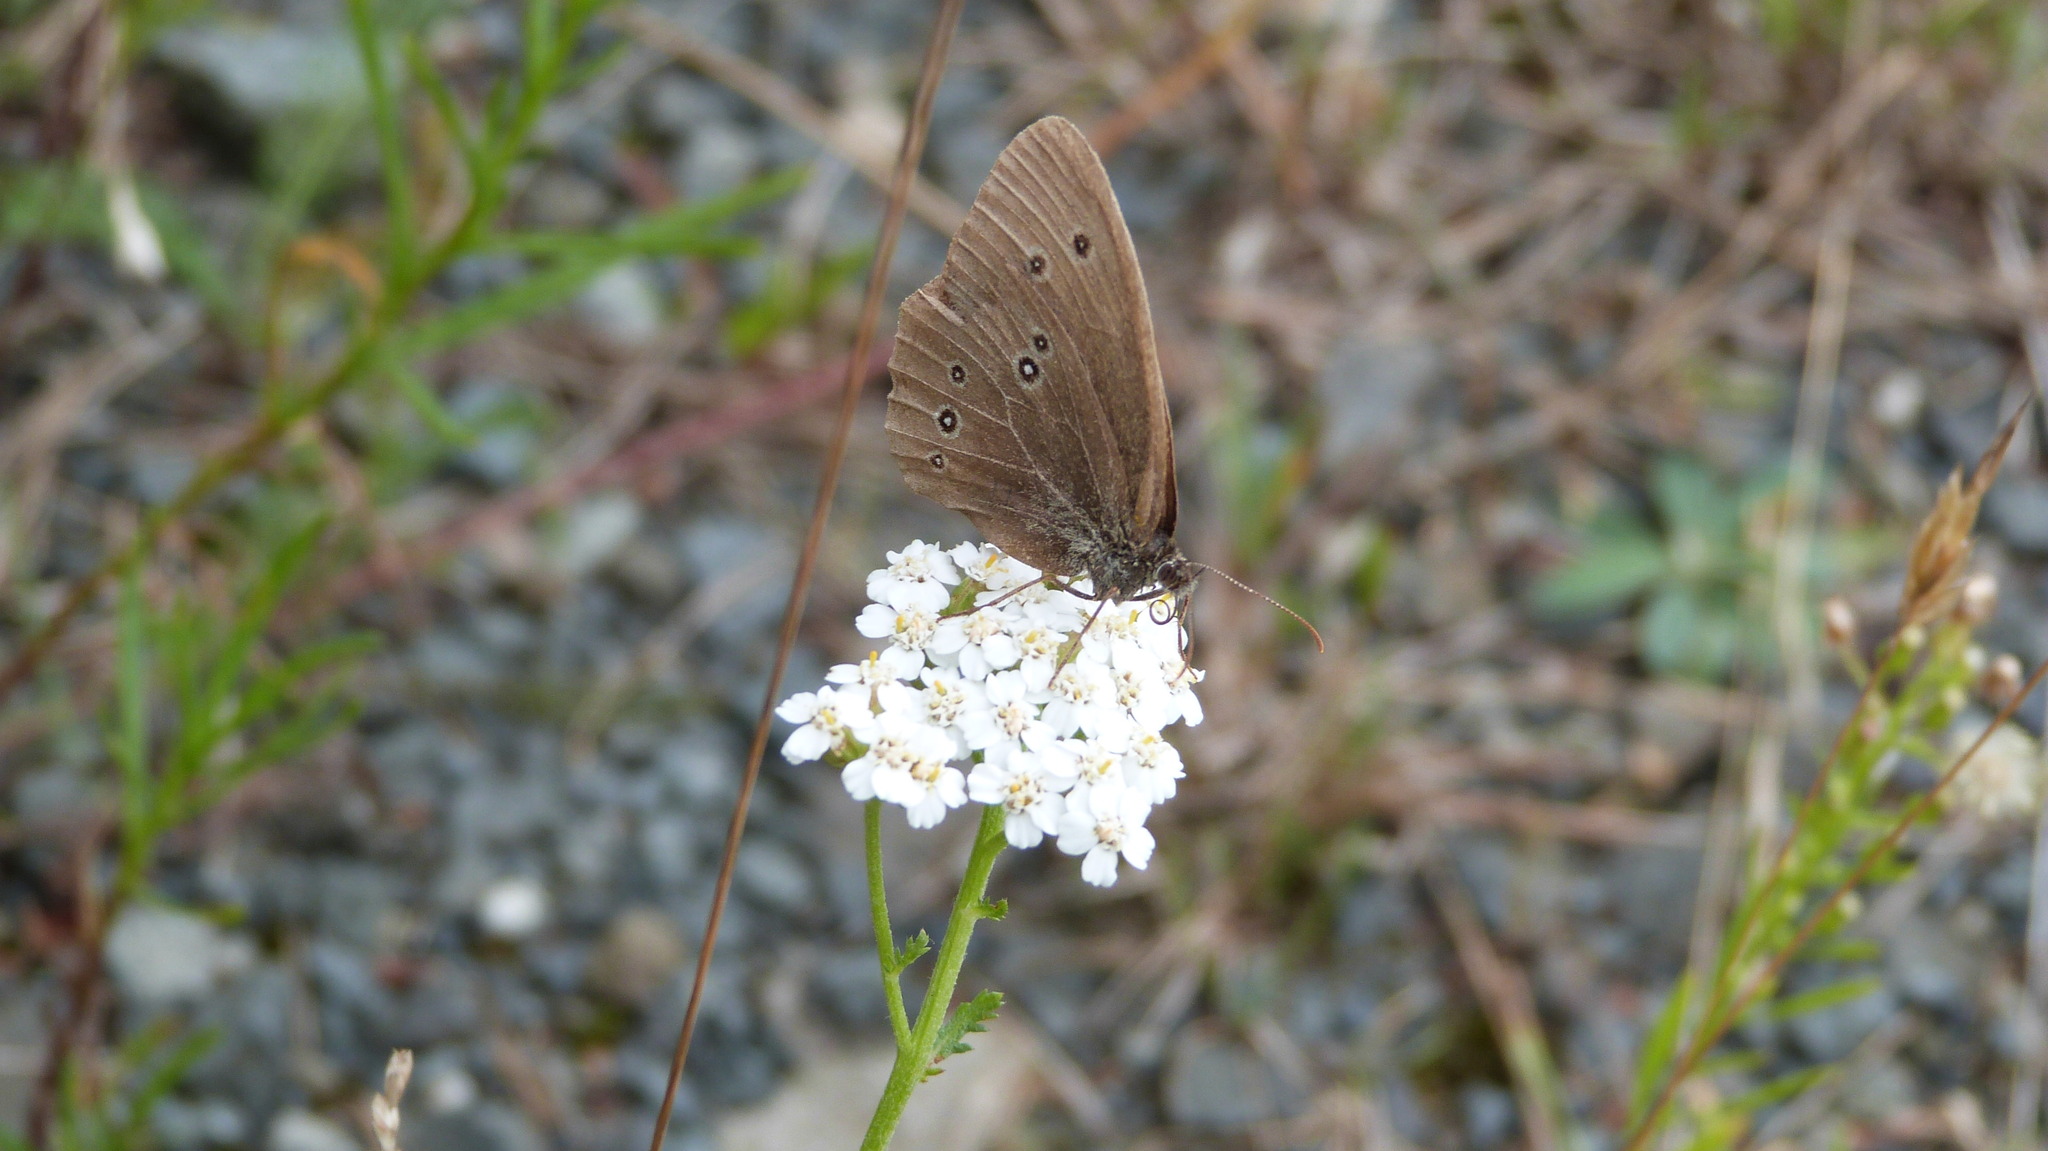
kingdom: Animalia
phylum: Arthropoda
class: Insecta
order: Lepidoptera
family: Nymphalidae
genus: Aphantopus
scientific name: Aphantopus hyperantus
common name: Ringlet
